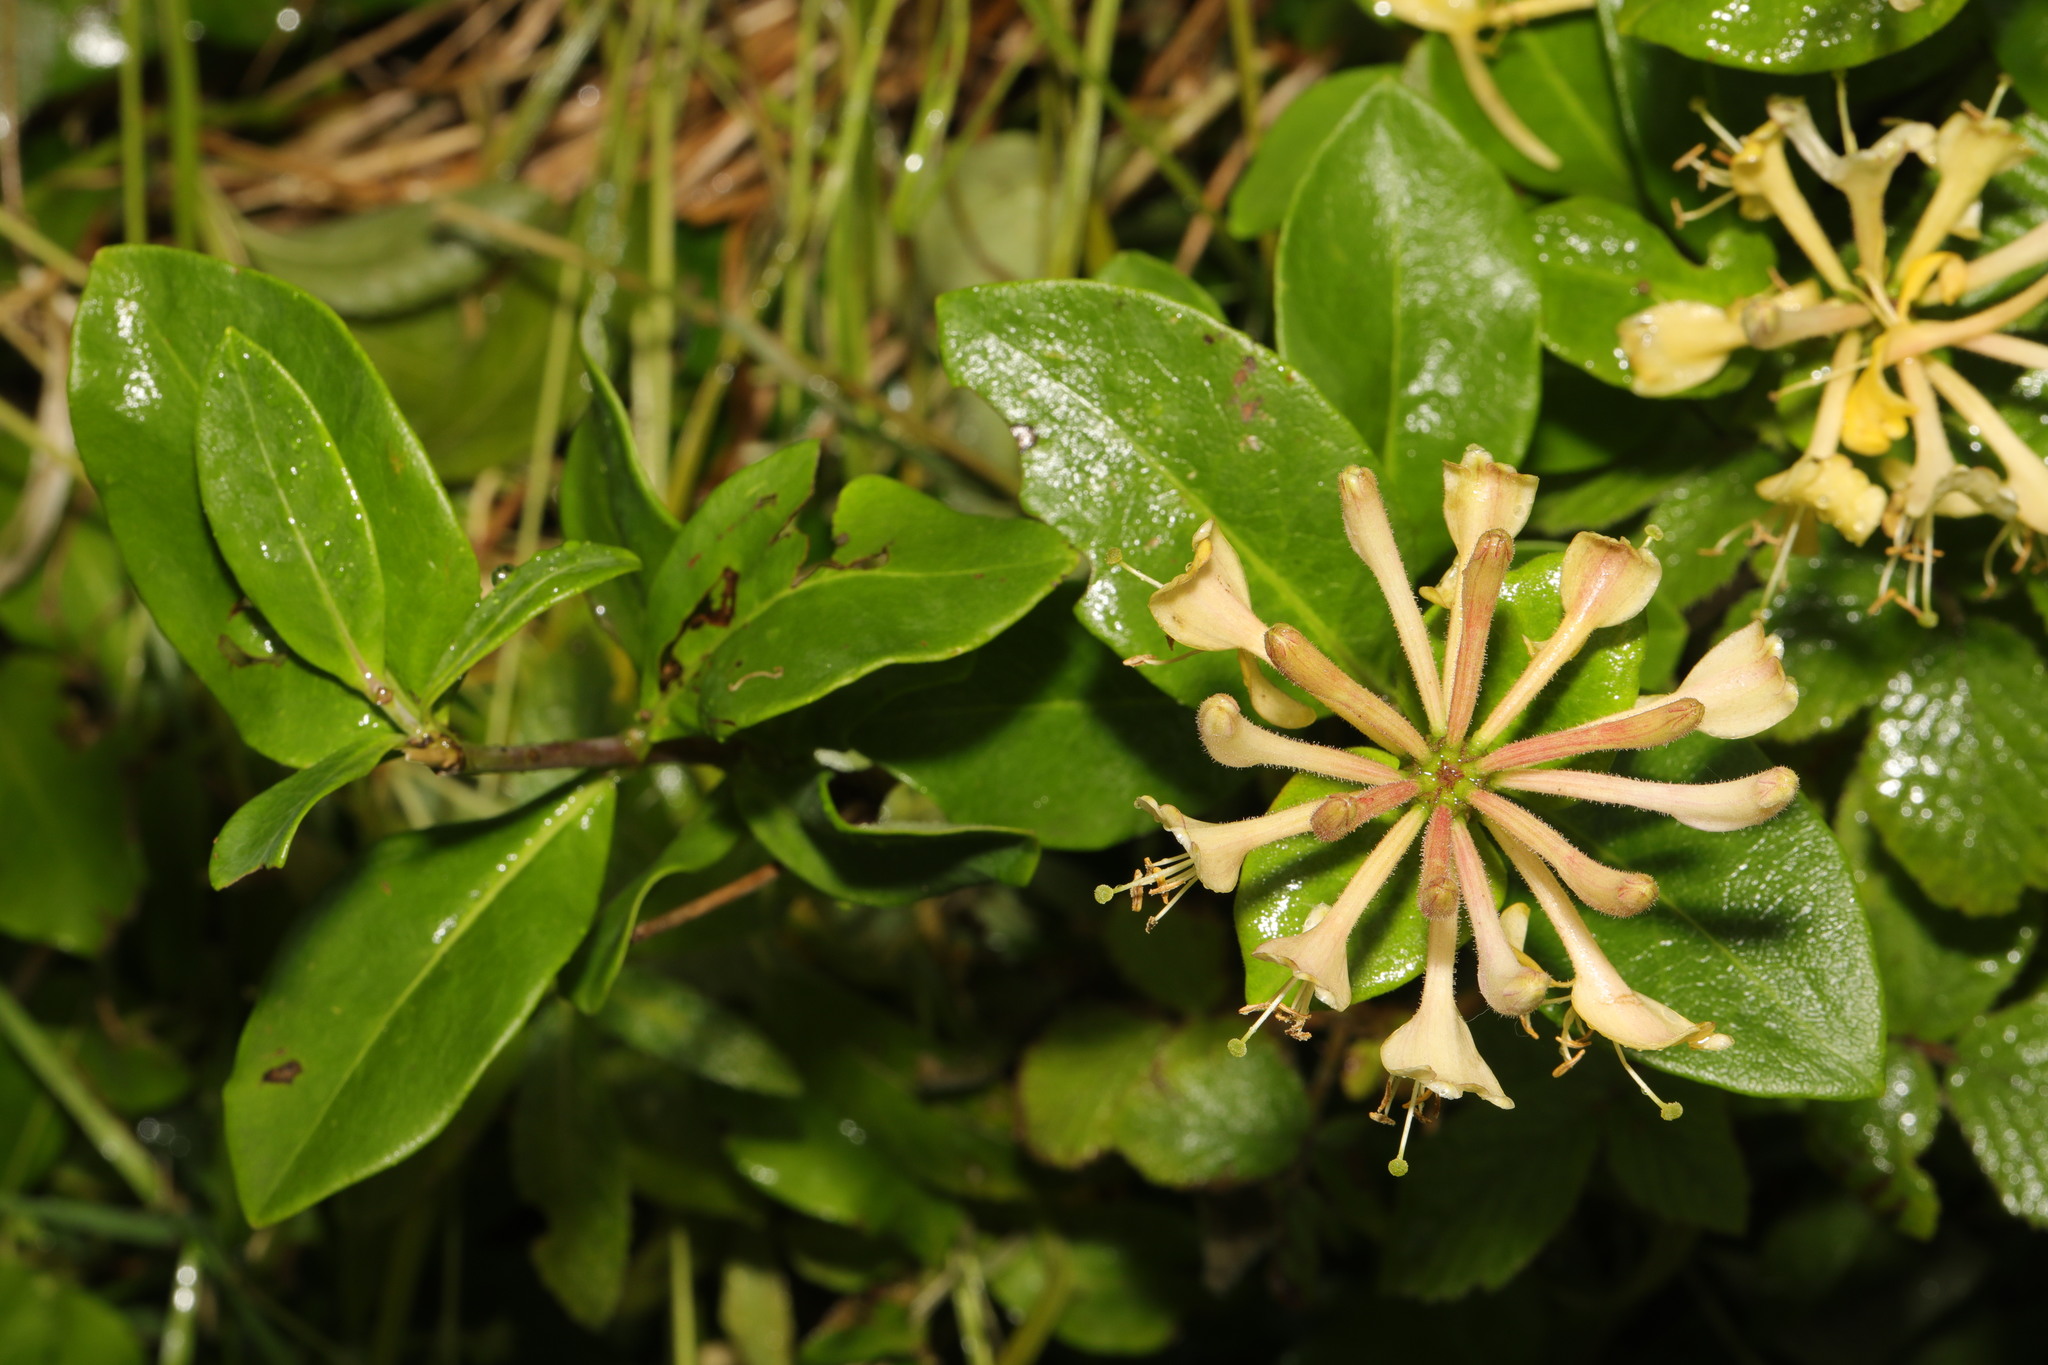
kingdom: Plantae
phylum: Tracheophyta
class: Magnoliopsida
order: Dipsacales
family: Caprifoliaceae
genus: Lonicera
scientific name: Lonicera periclymenum
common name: European honeysuckle
